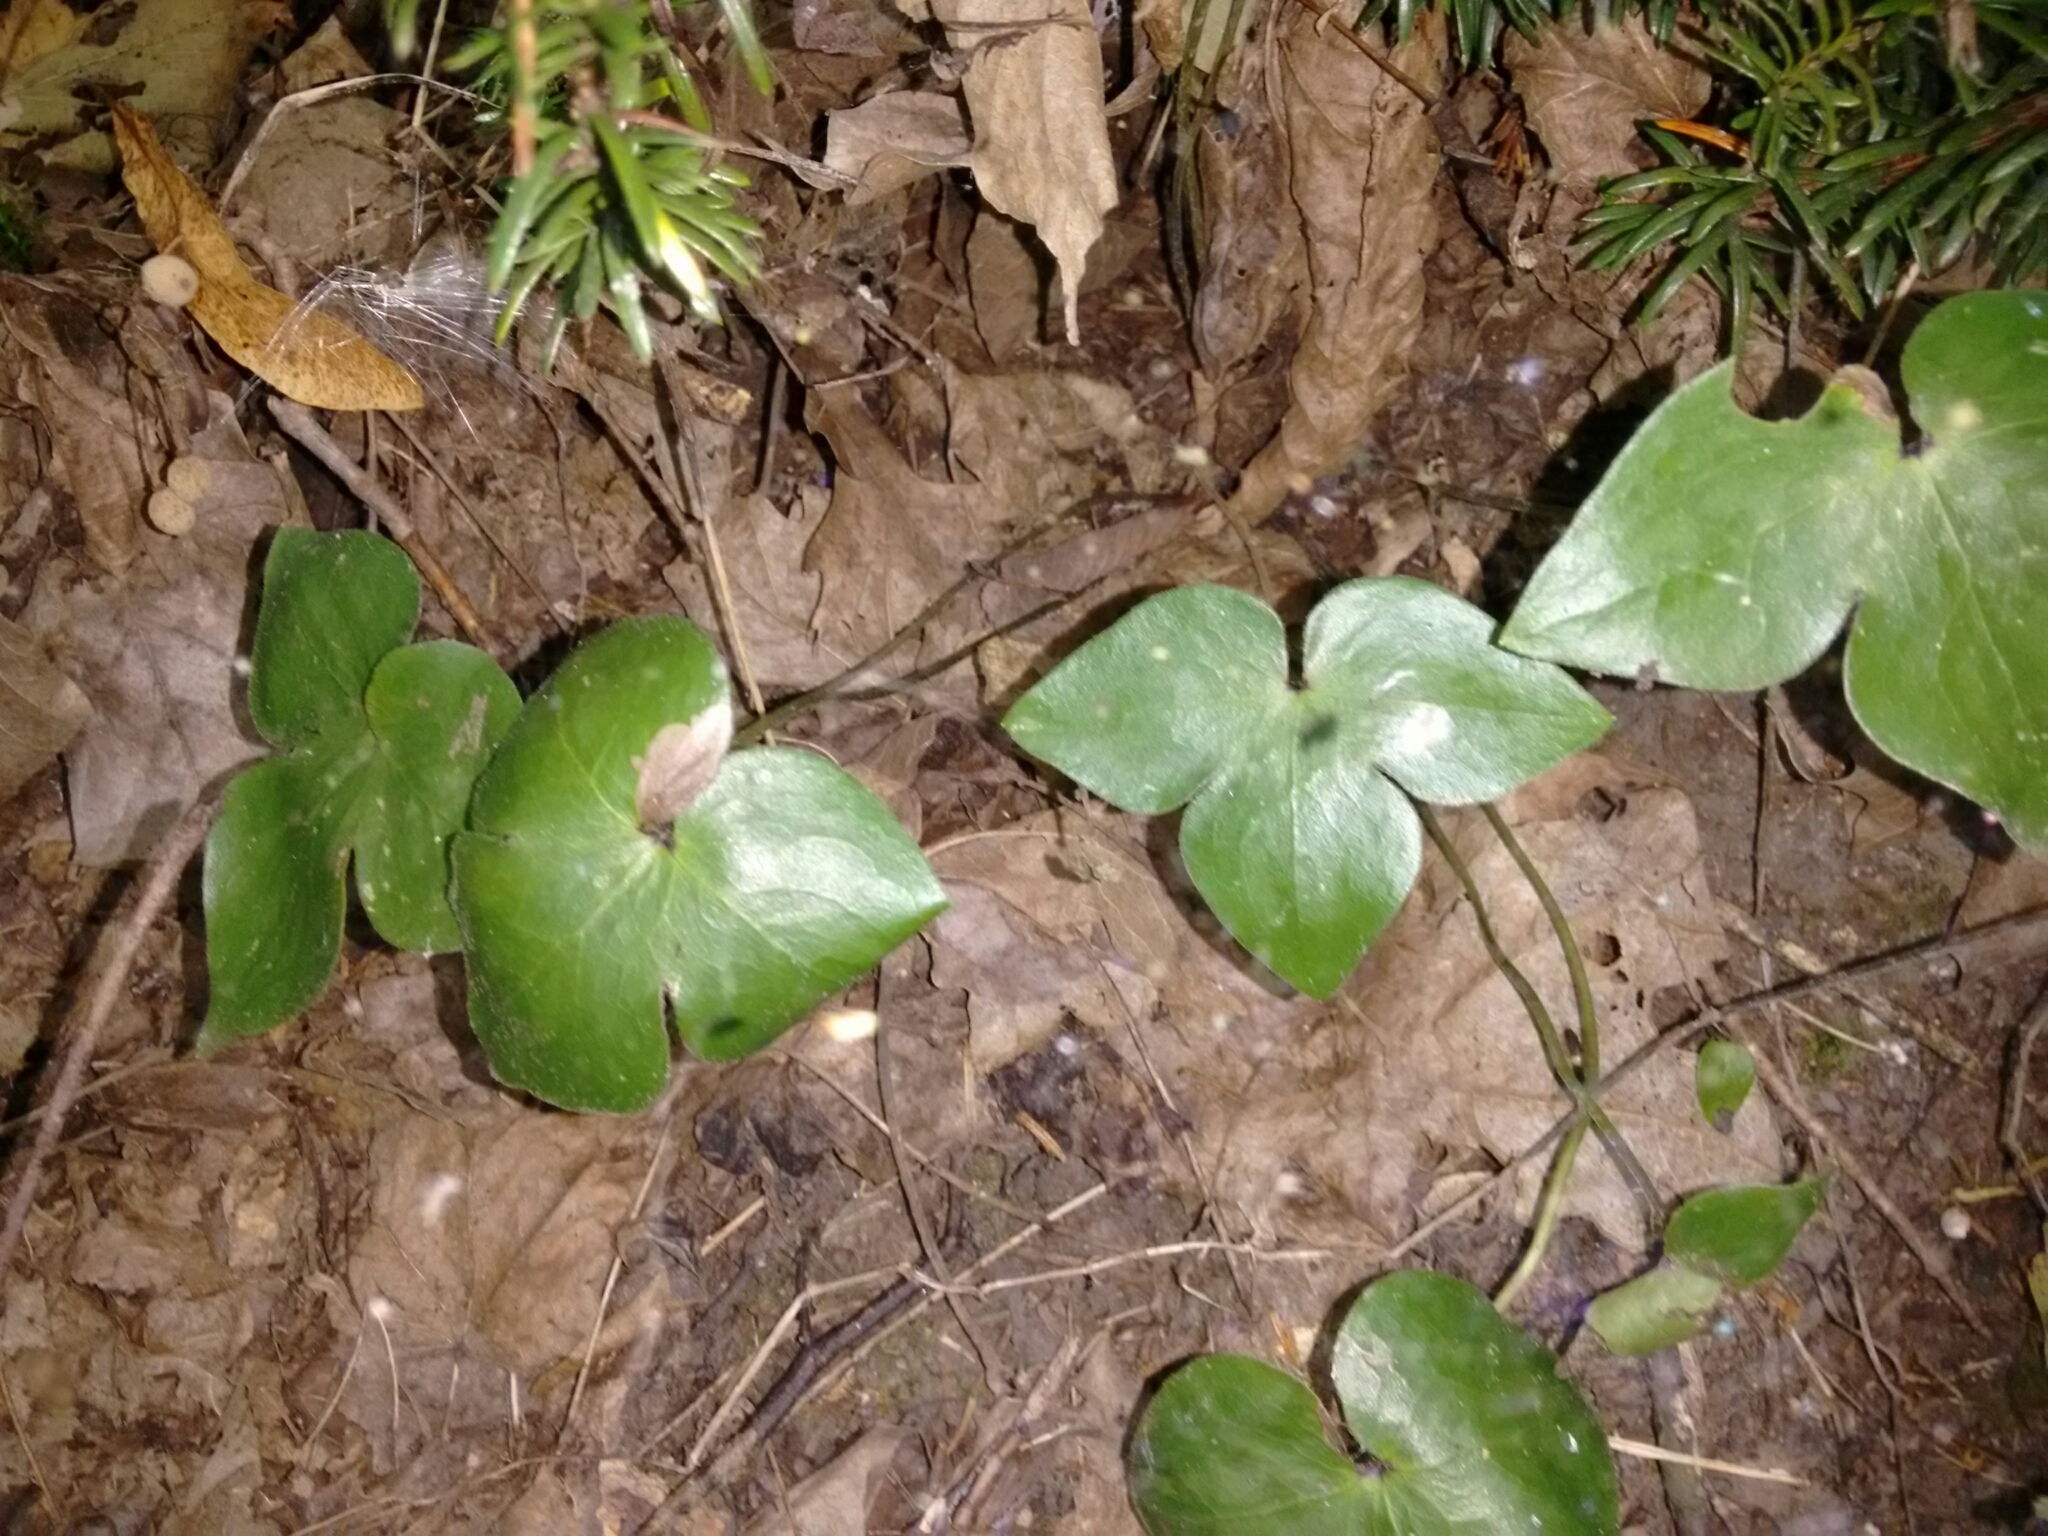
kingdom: Plantae
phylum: Tracheophyta
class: Magnoliopsida
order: Ranunculales
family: Ranunculaceae
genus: Hepatica
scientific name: Hepatica acutiloba
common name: Sharp-lobed hepatica
